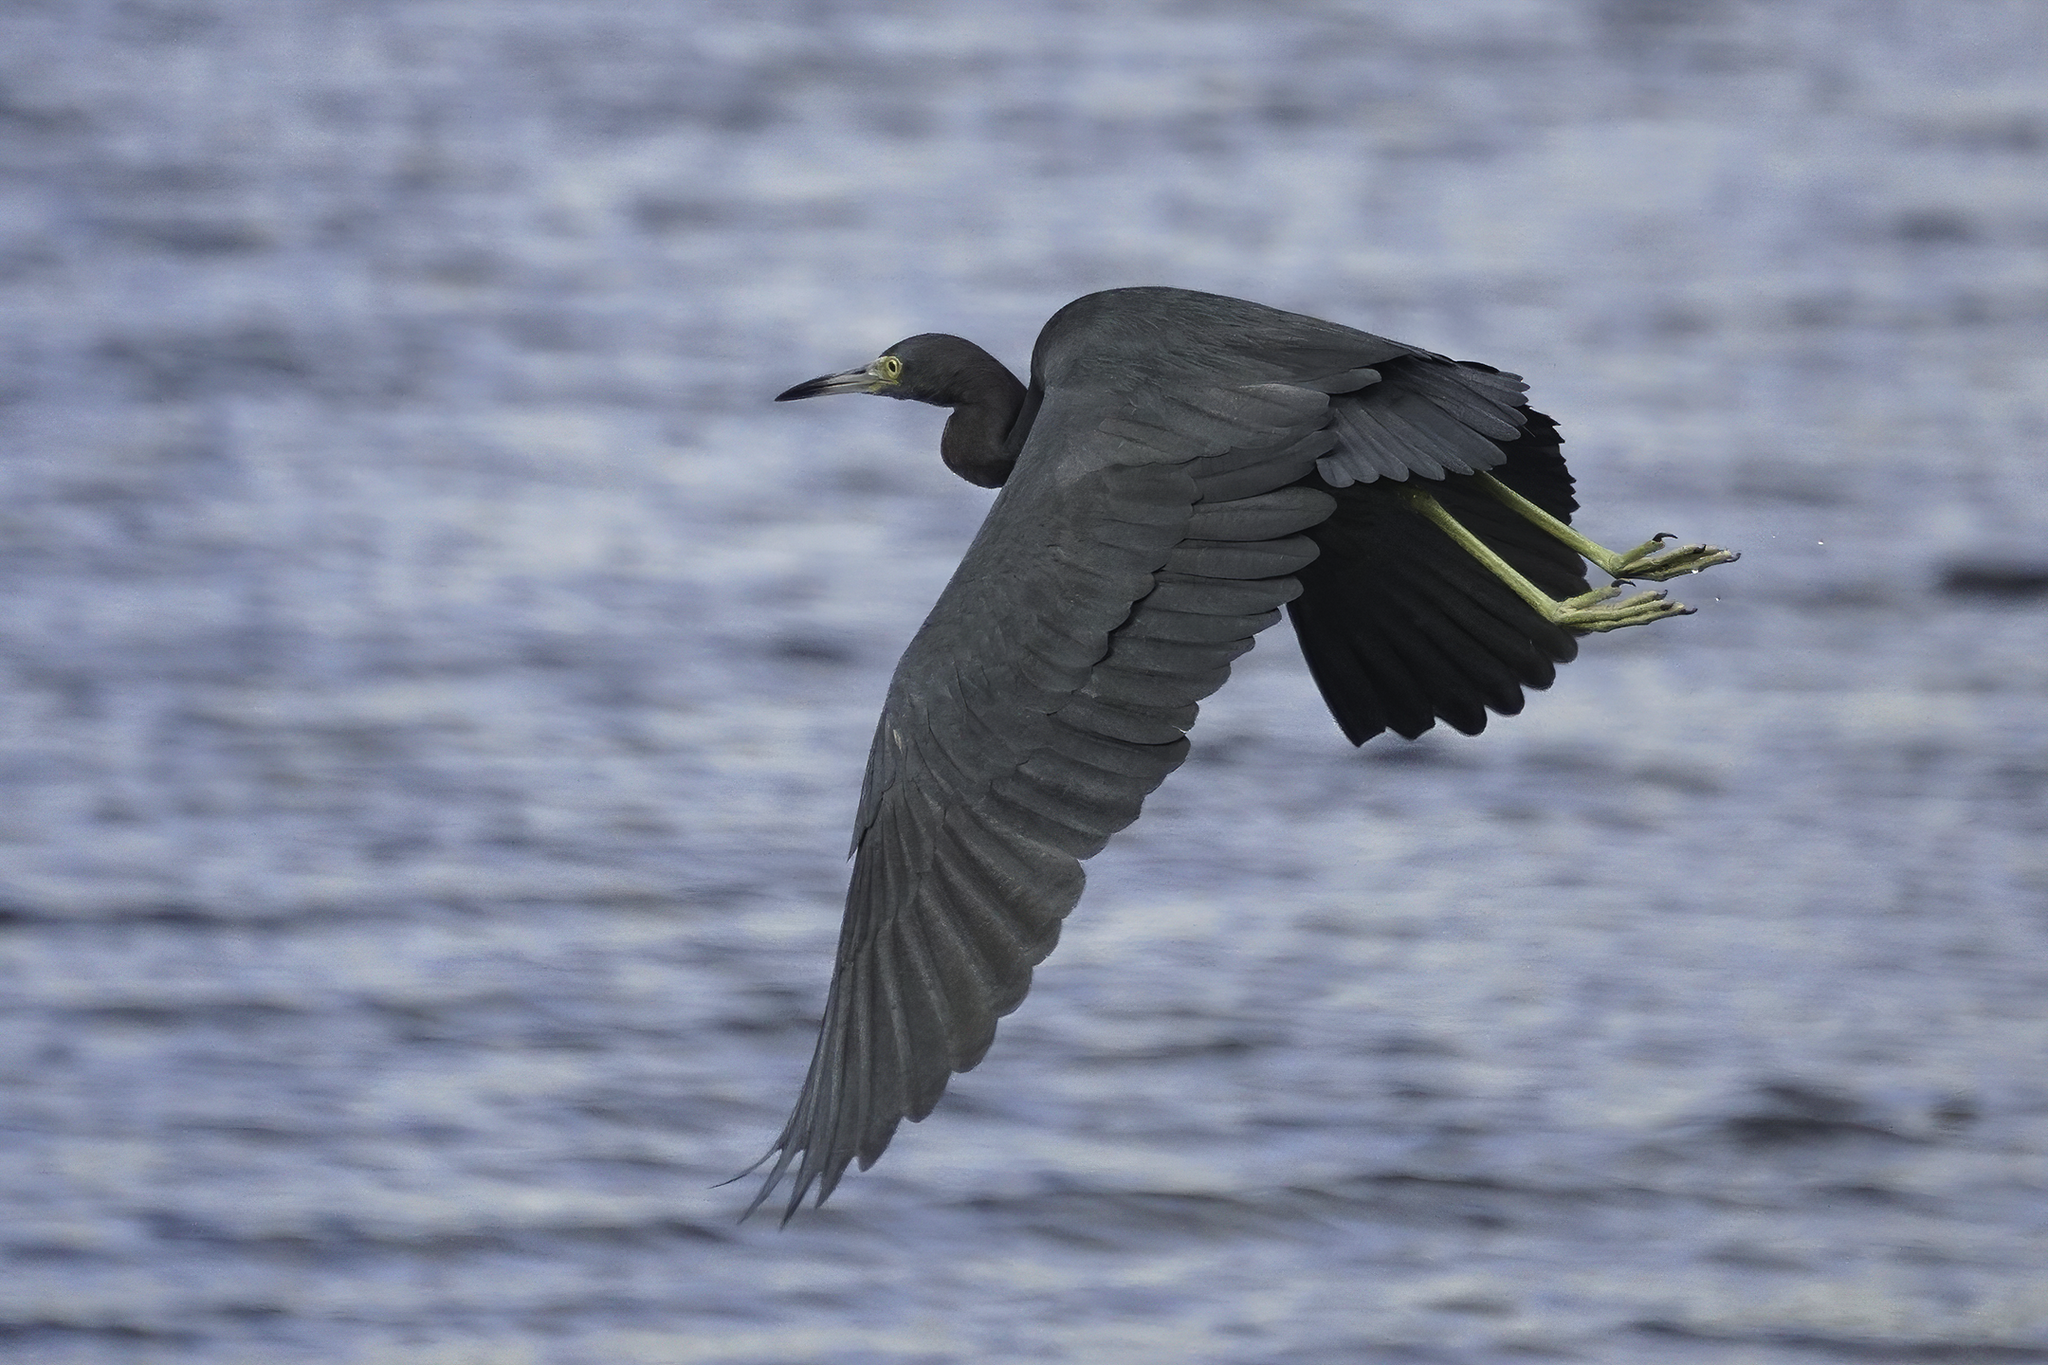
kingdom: Animalia
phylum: Chordata
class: Aves
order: Pelecaniformes
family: Ardeidae
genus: Egretta
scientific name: Egretta caerulea
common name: Little blue heron
